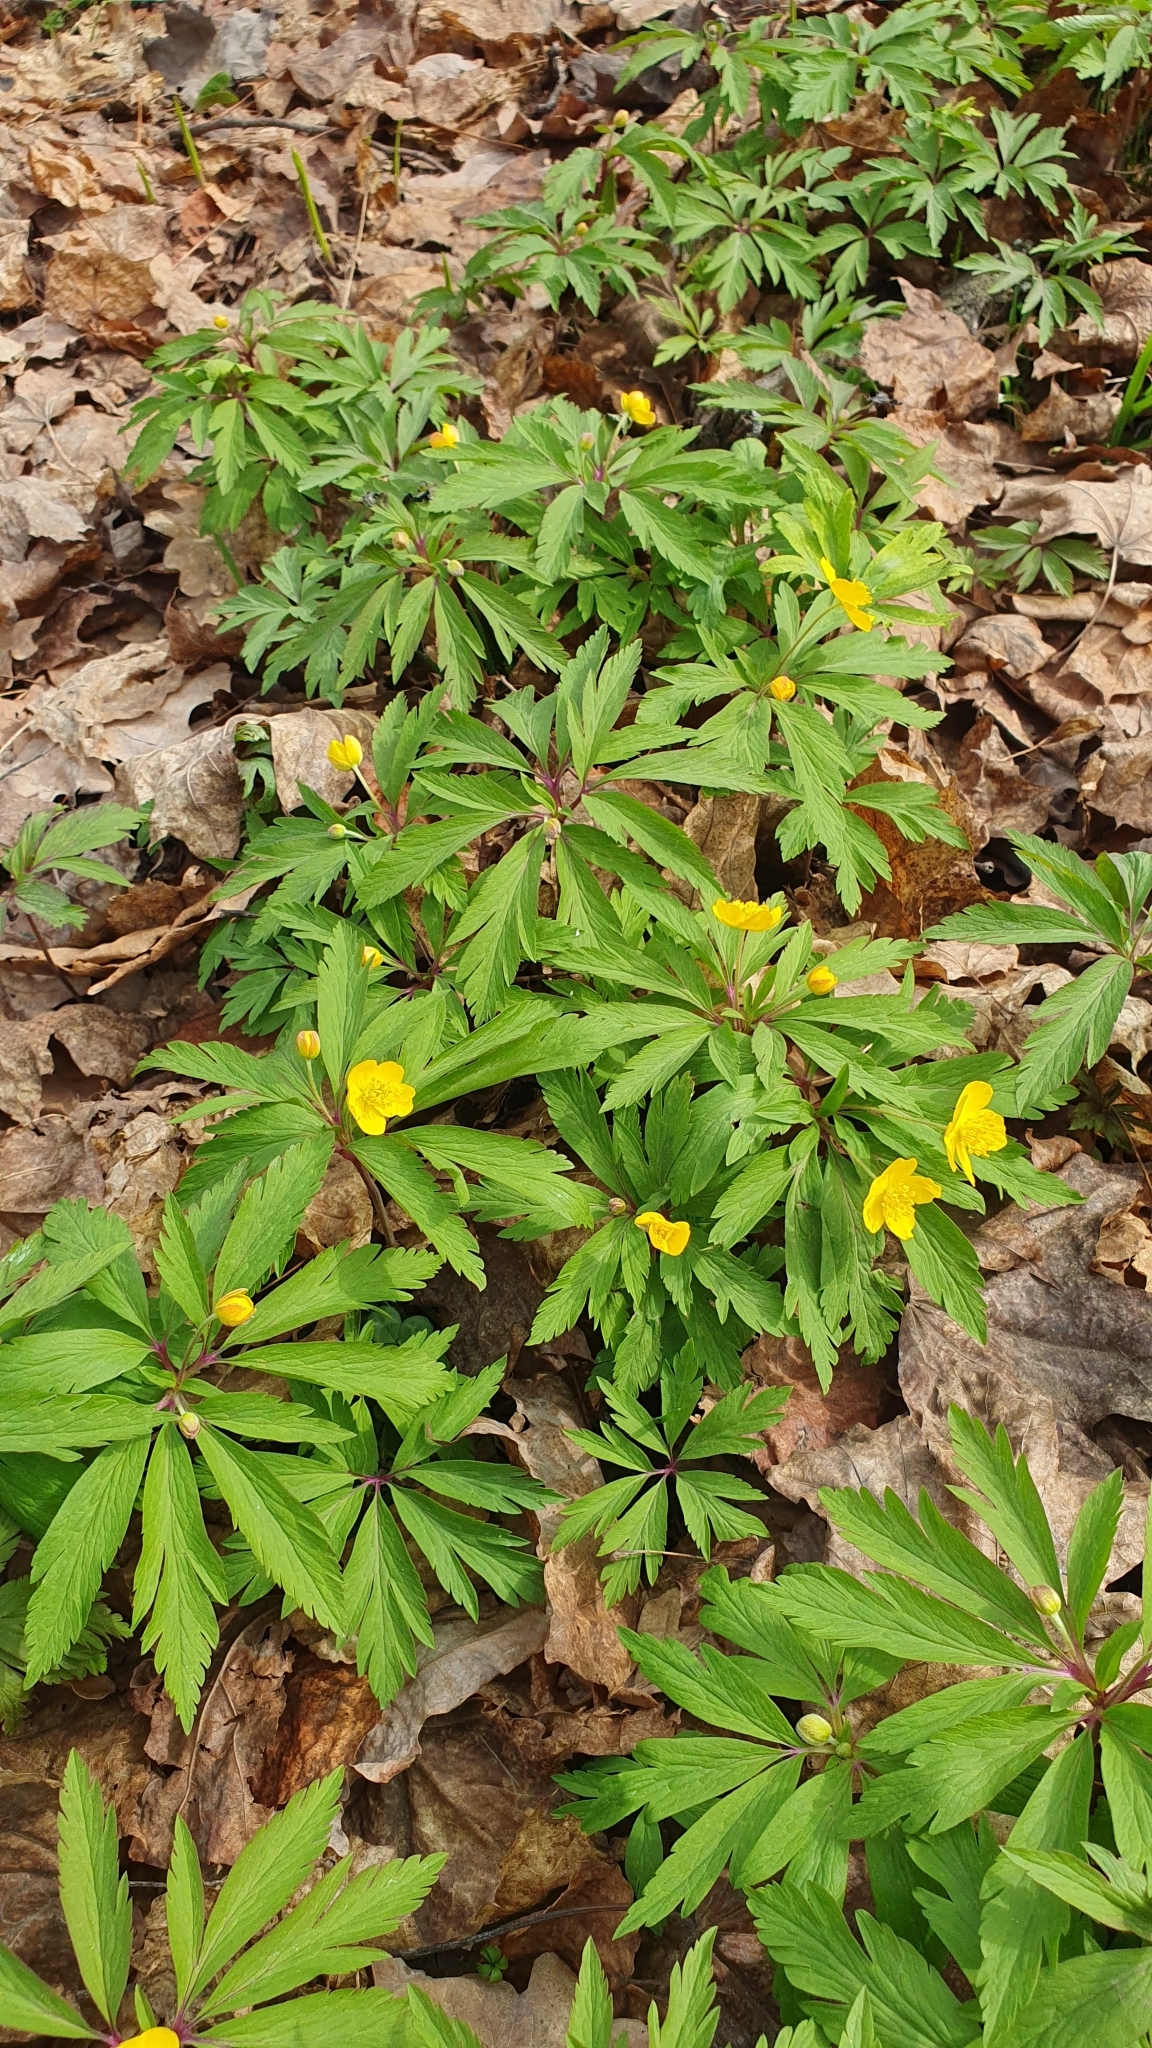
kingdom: Plantae
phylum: Tracheophyta
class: Magnoliopsida
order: Ranunculales
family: Ranunculaceae
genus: Anemone
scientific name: Anemone ranunculoides
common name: Yellow anemone
